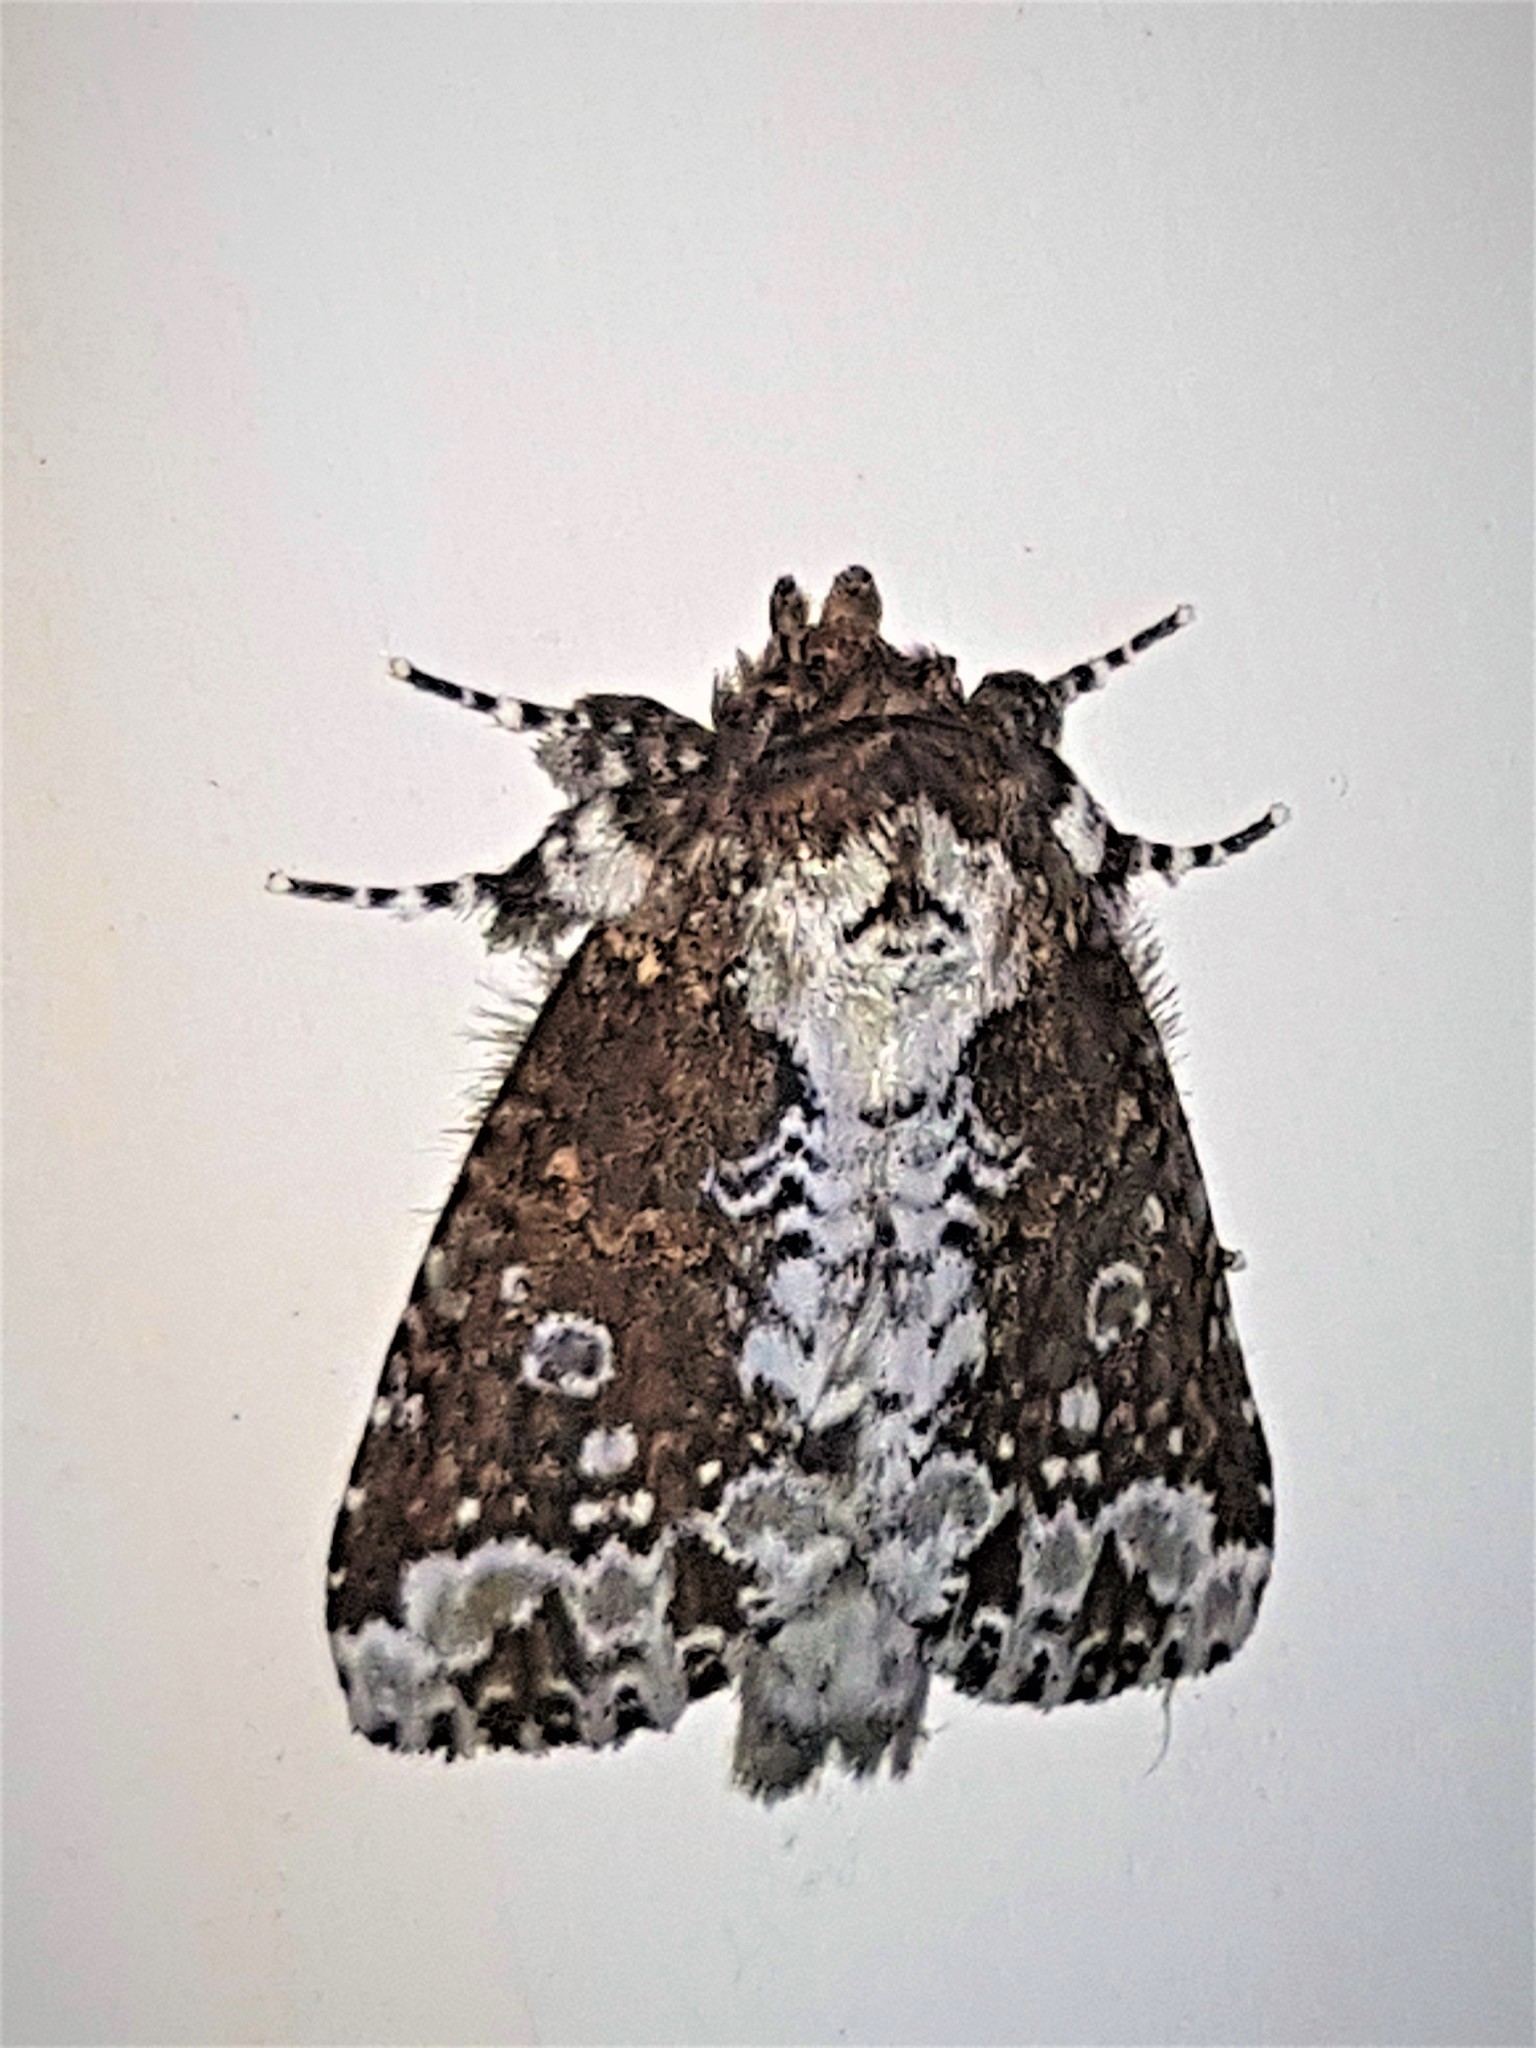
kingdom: Animalia
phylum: Arthropoda
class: Insecta
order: Lepidoptera
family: Notodontidae
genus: Disphragis
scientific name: Disphragis aemula
